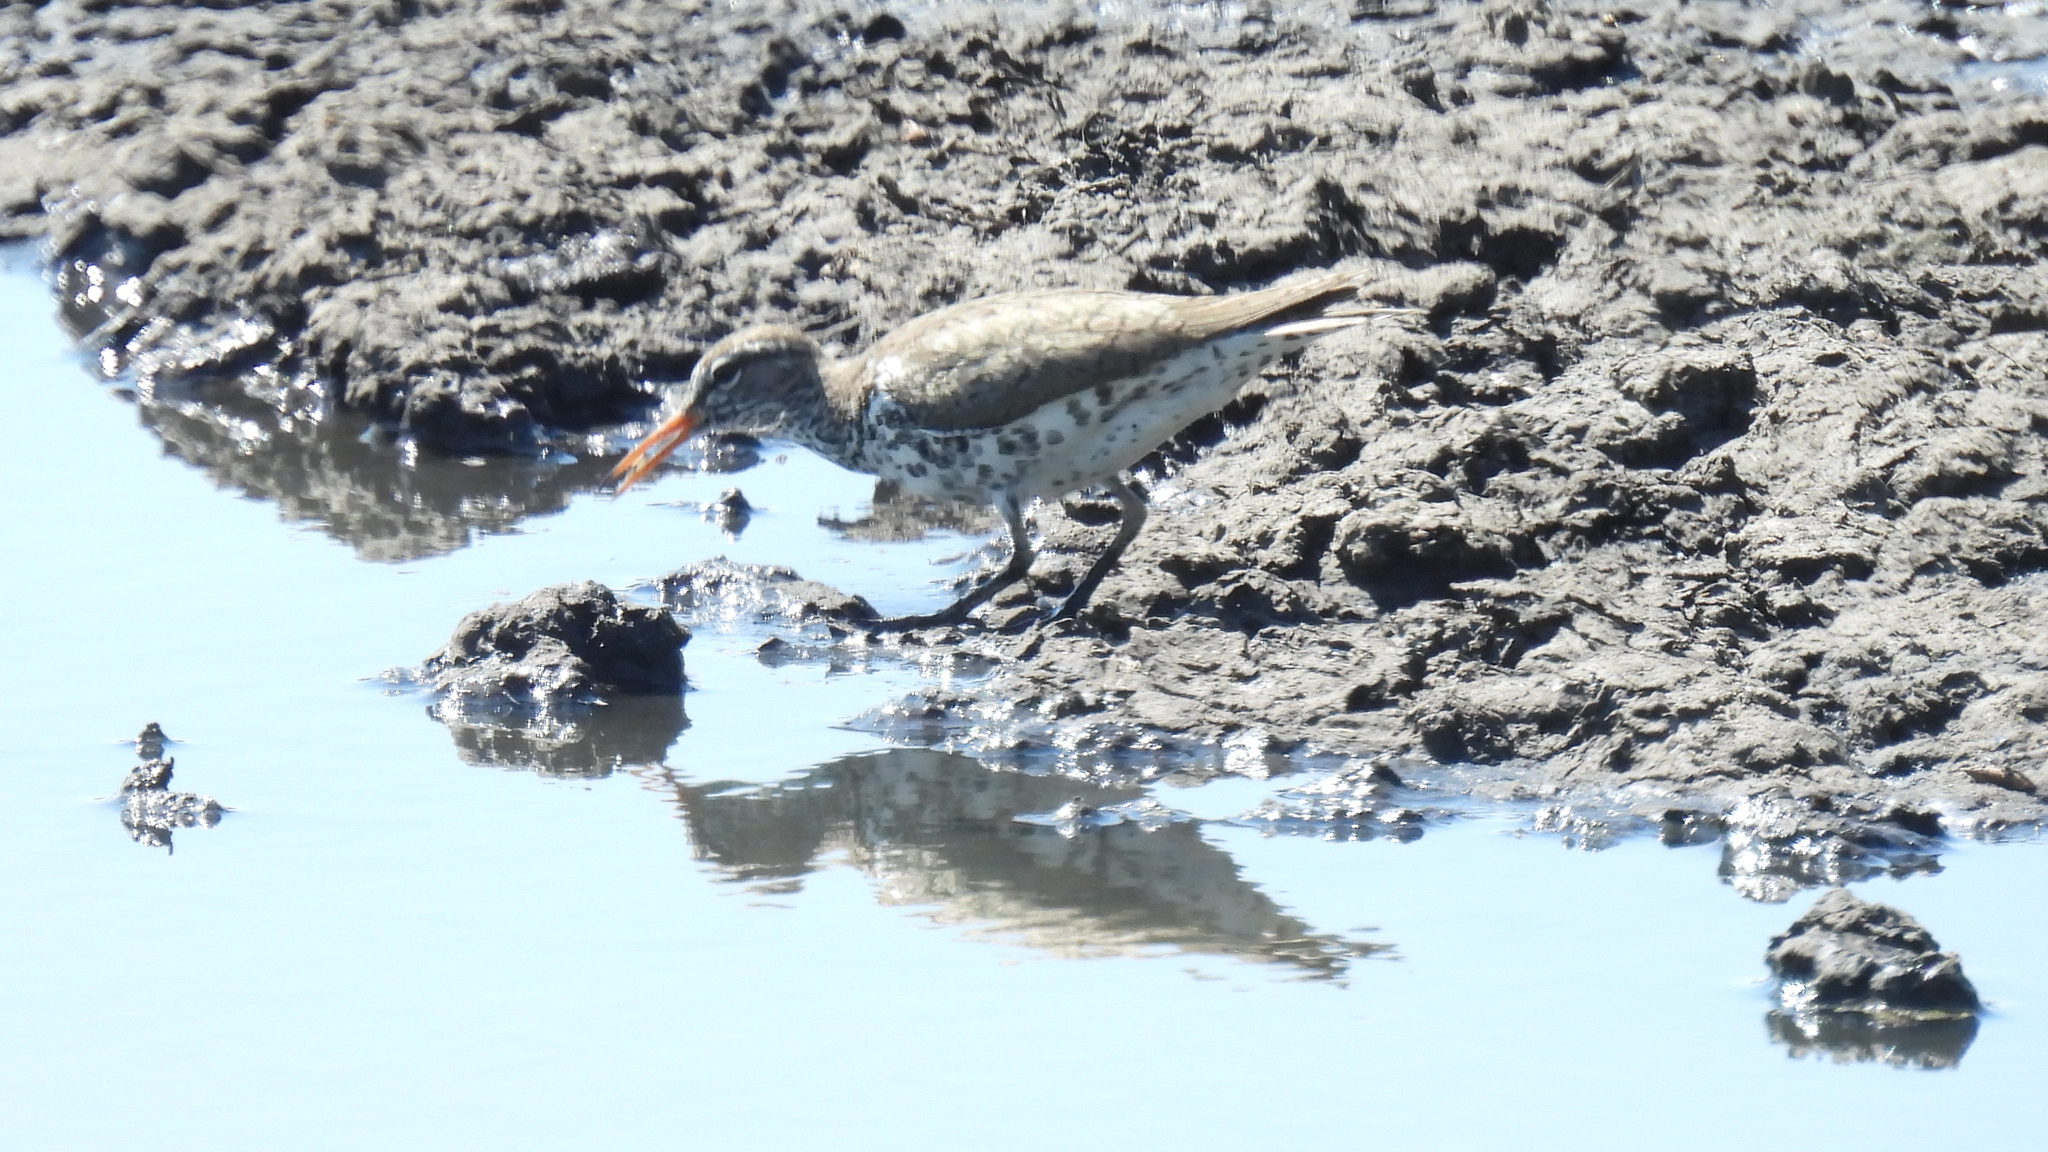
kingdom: Animalia
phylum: Chordata
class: Aves
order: Charadriiformes
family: Scolopacidae
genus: Actitis
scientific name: Actitis macularius
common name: Spotted sandpiper
